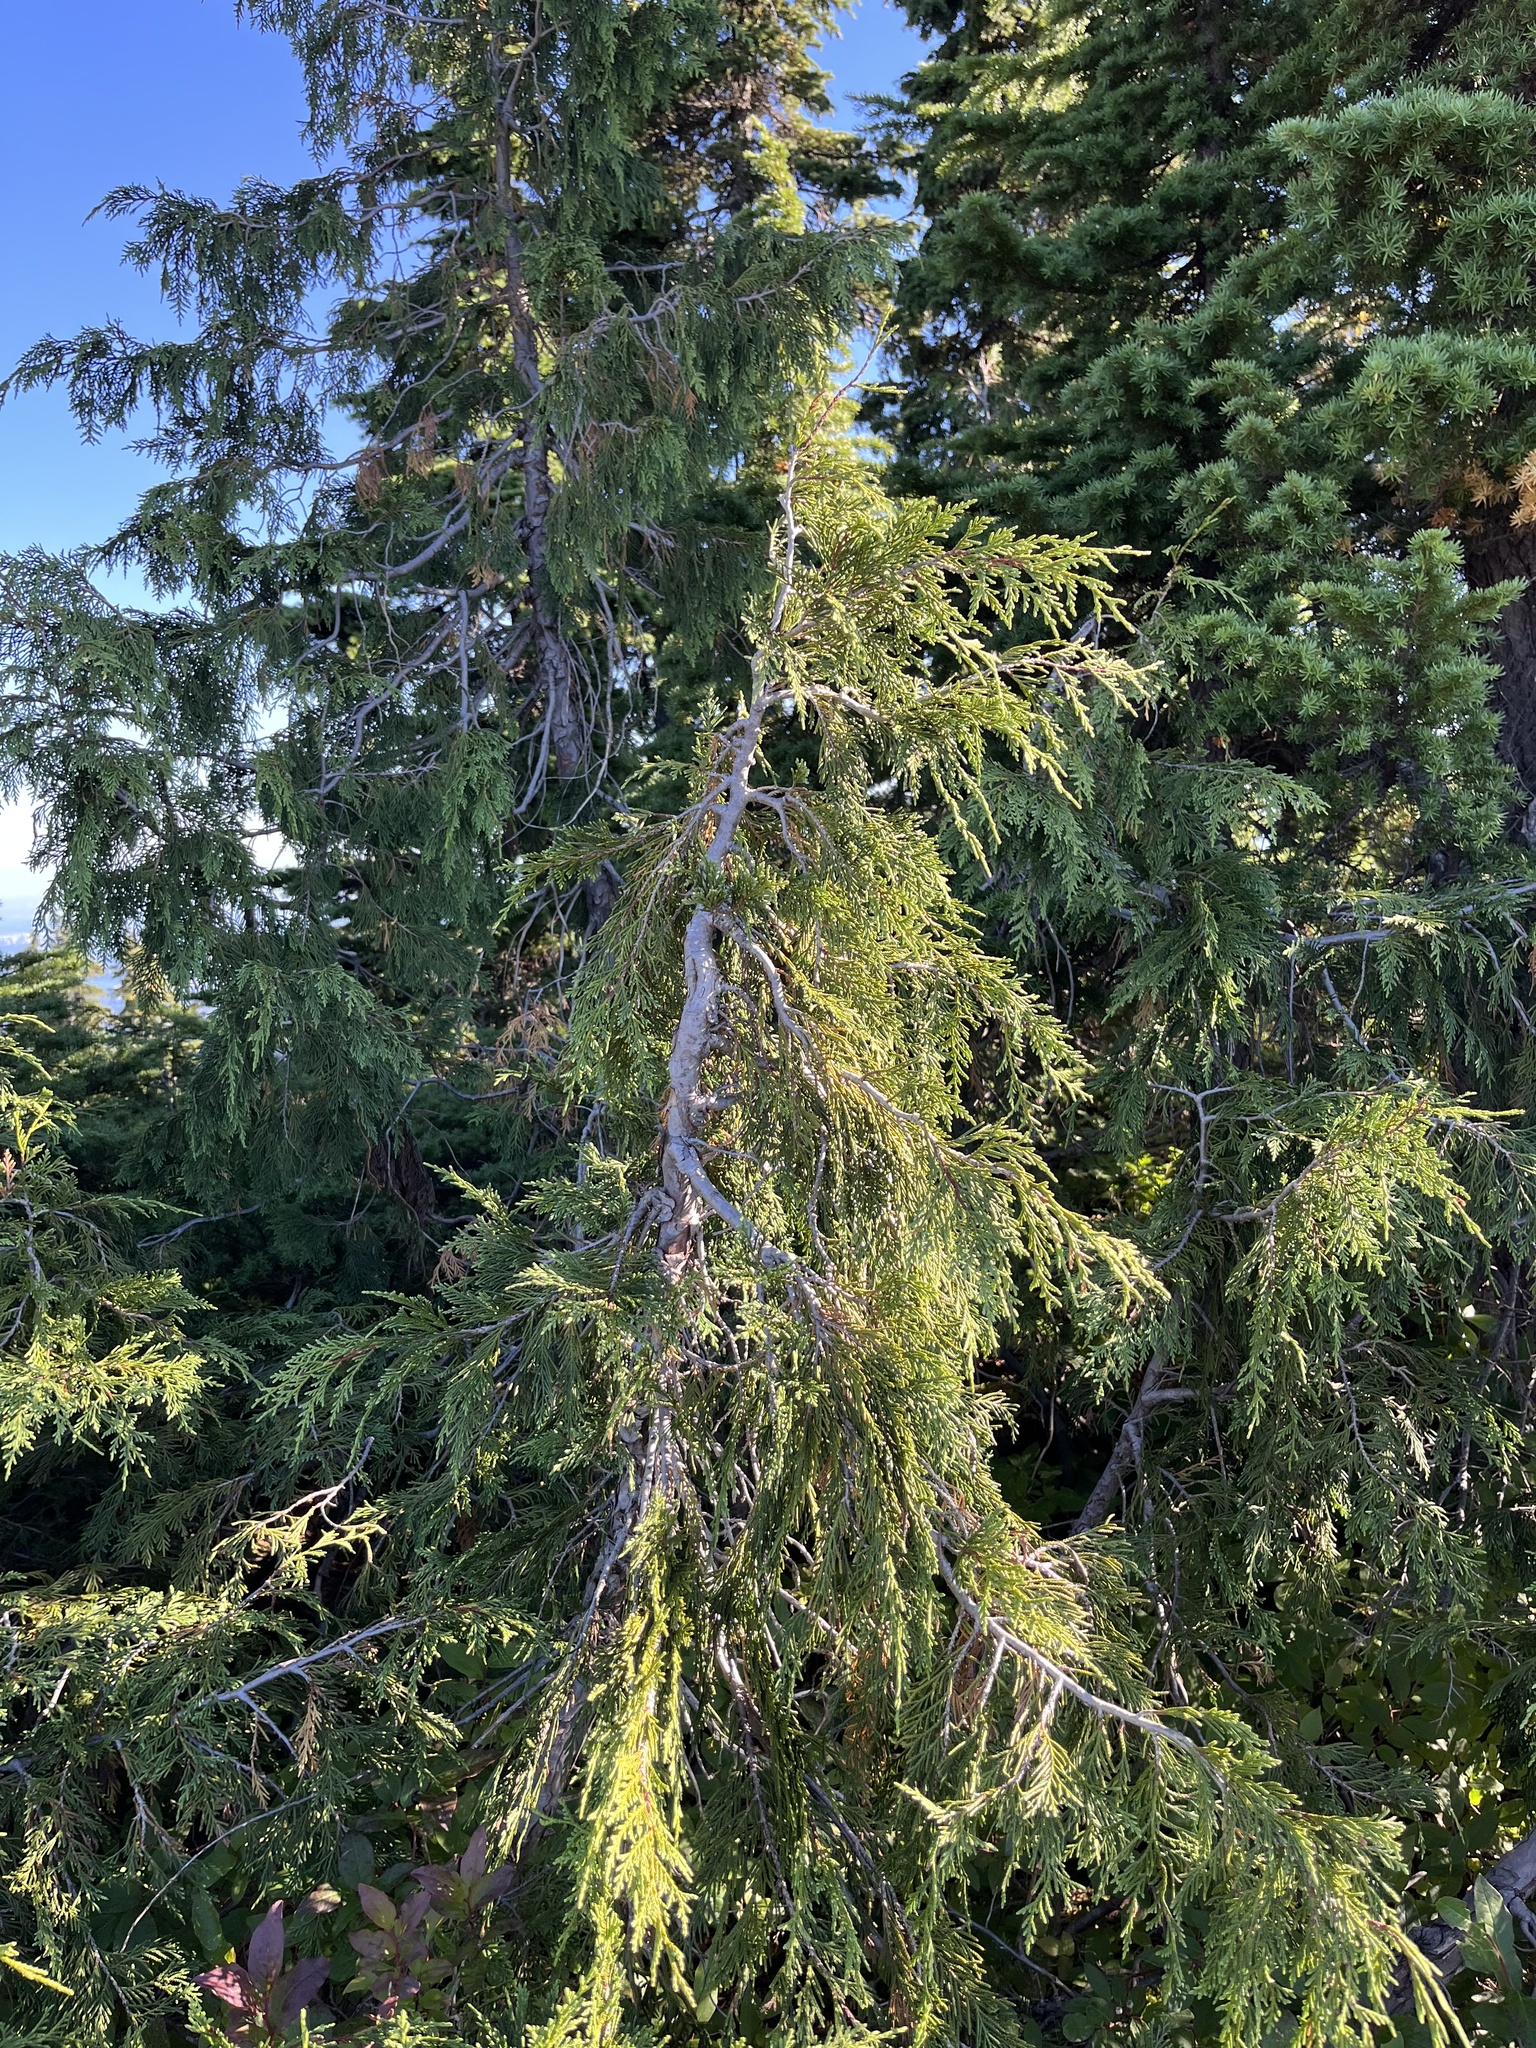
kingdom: Plantae
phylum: Tracheophyta
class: Pinopsida
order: Pinales
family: Cupressaceae
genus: Xanthocyparis
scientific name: Xanthocyparis nootkatensis
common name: Nootka cypress
